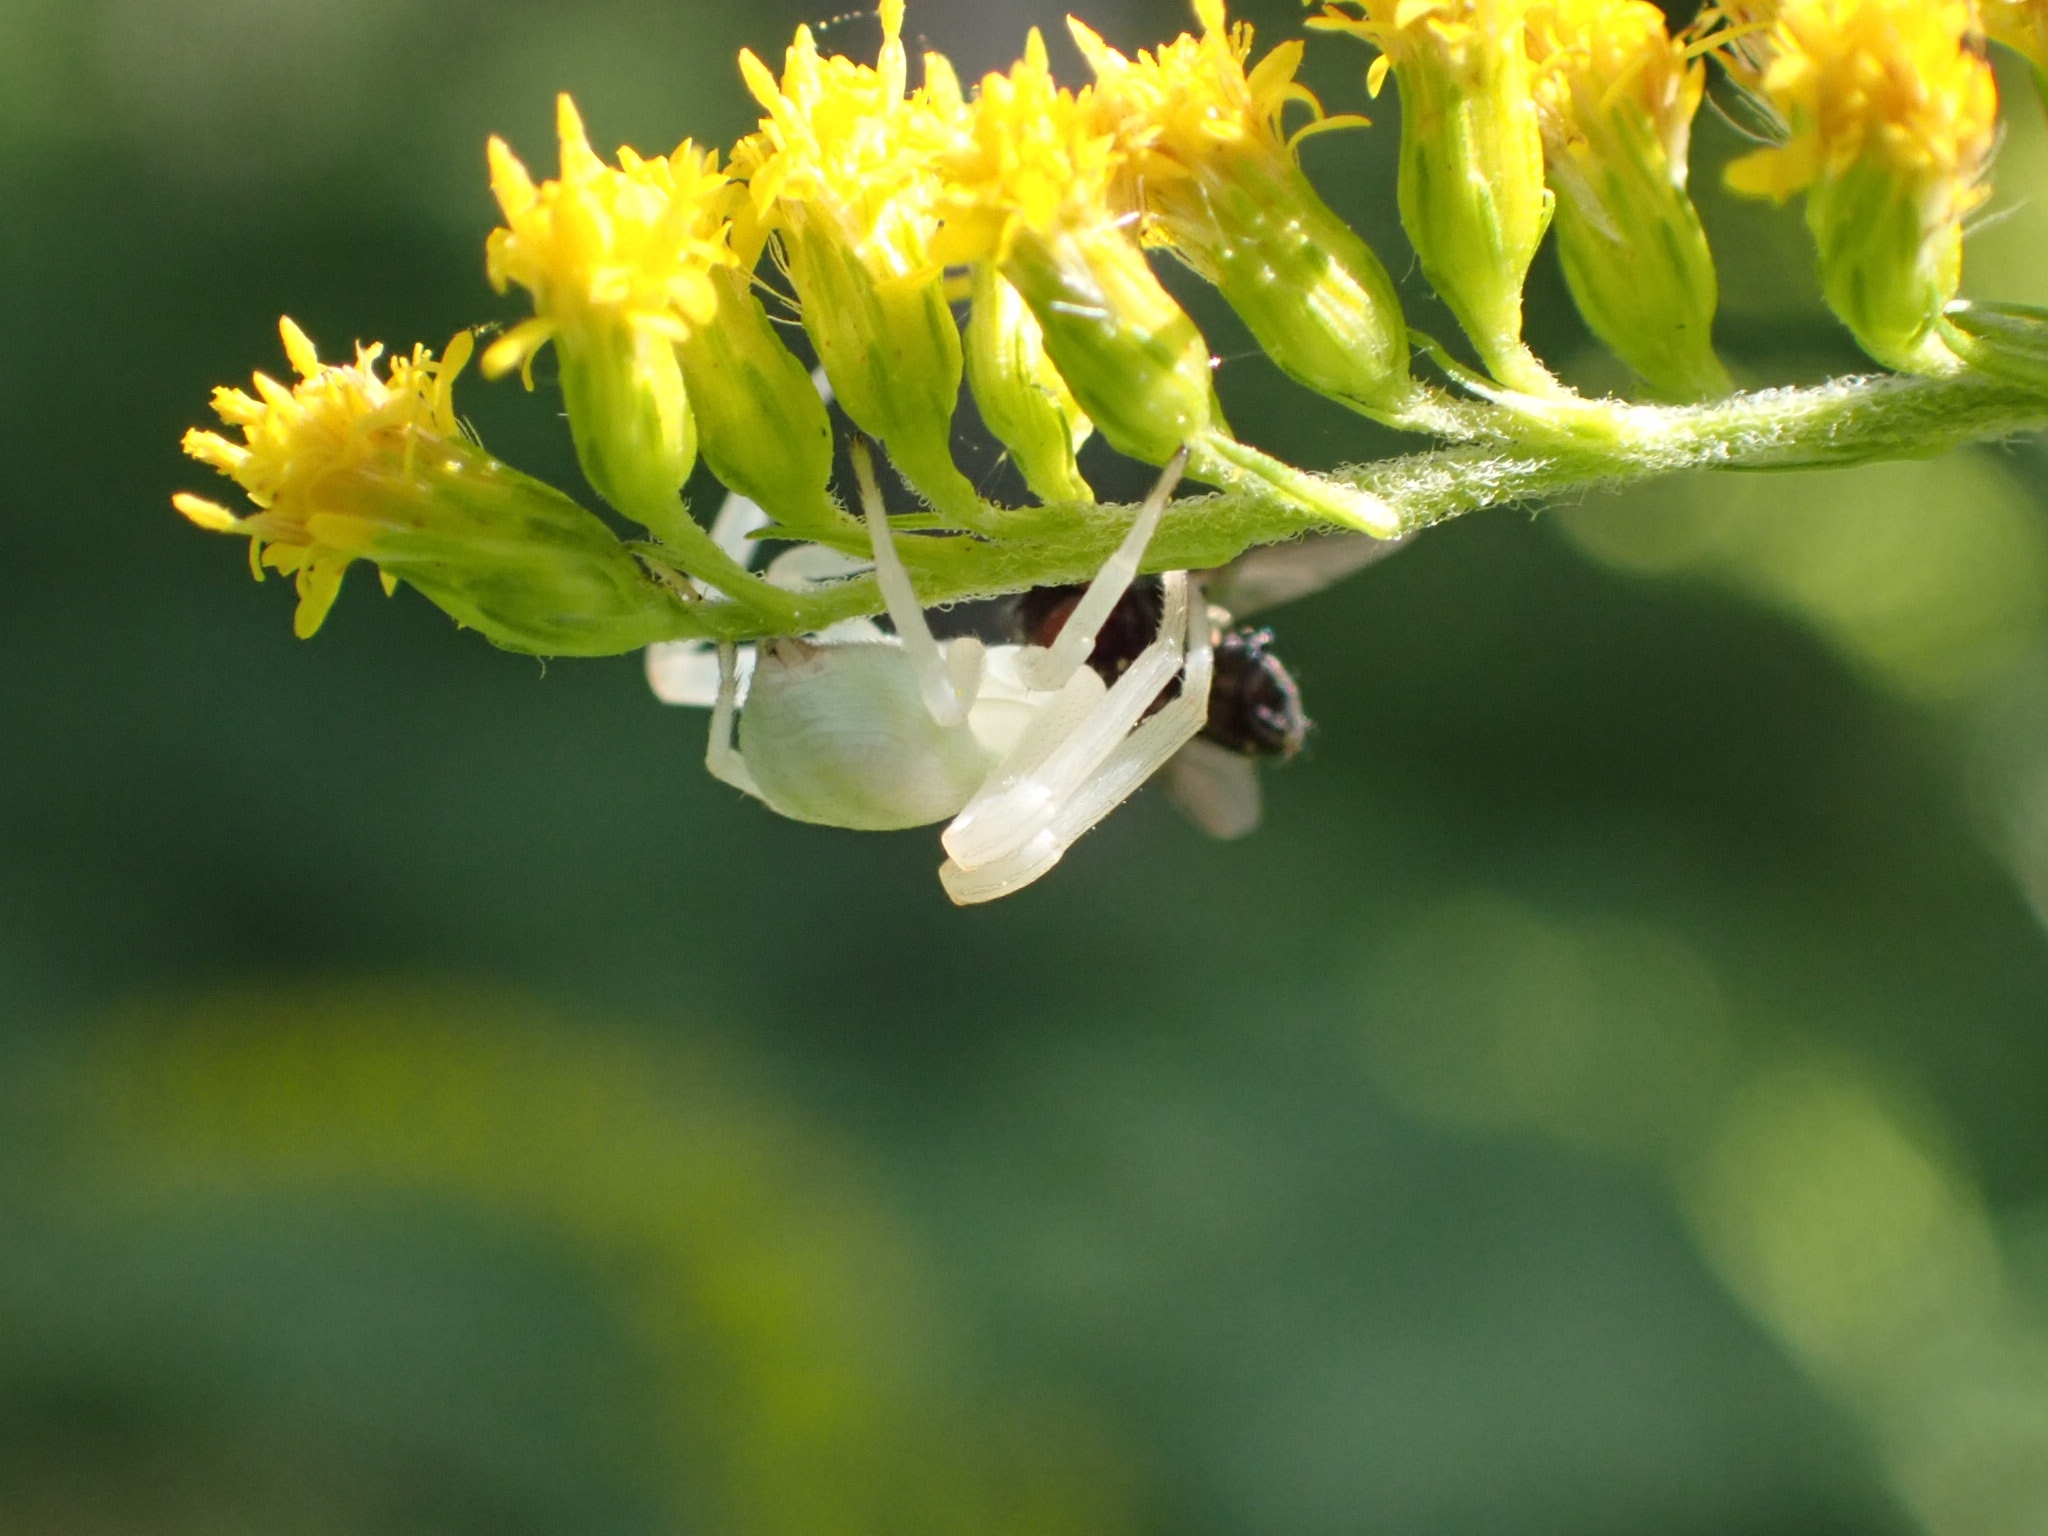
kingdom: Animalia
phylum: Arthropoda
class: Arachnida
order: Araneae
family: Thomisidae
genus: Misumena
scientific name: Misumena vatia
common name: Goldenrod crab spider
